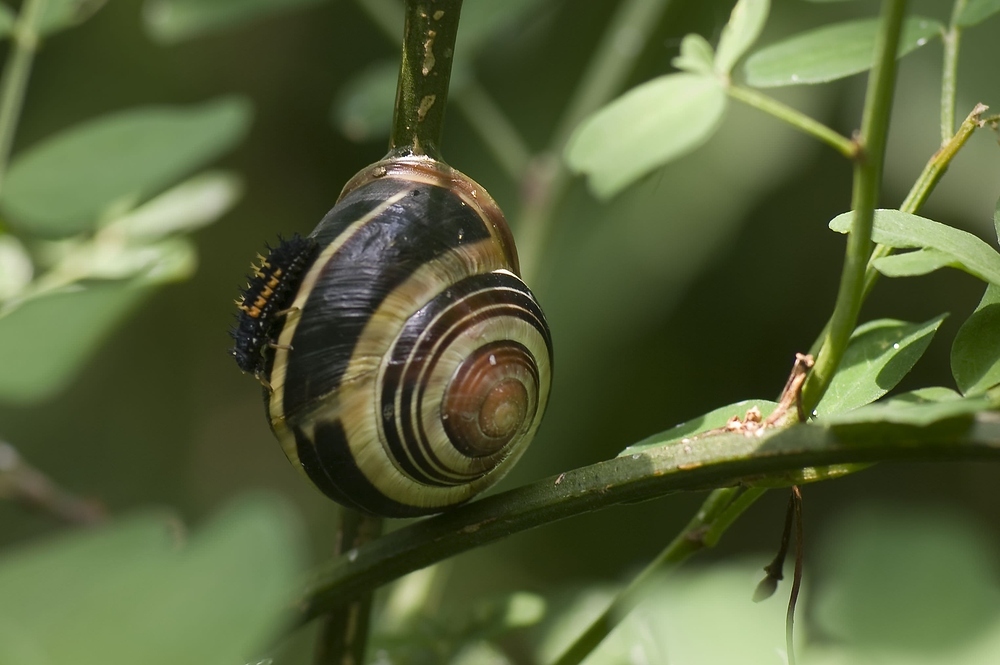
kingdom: Animalia
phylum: Arthropoda
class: Insecta
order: Coleoptera
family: Coccinellidae
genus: Harmonia
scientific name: Harmonia axyridis
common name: Harlequin ladybird
